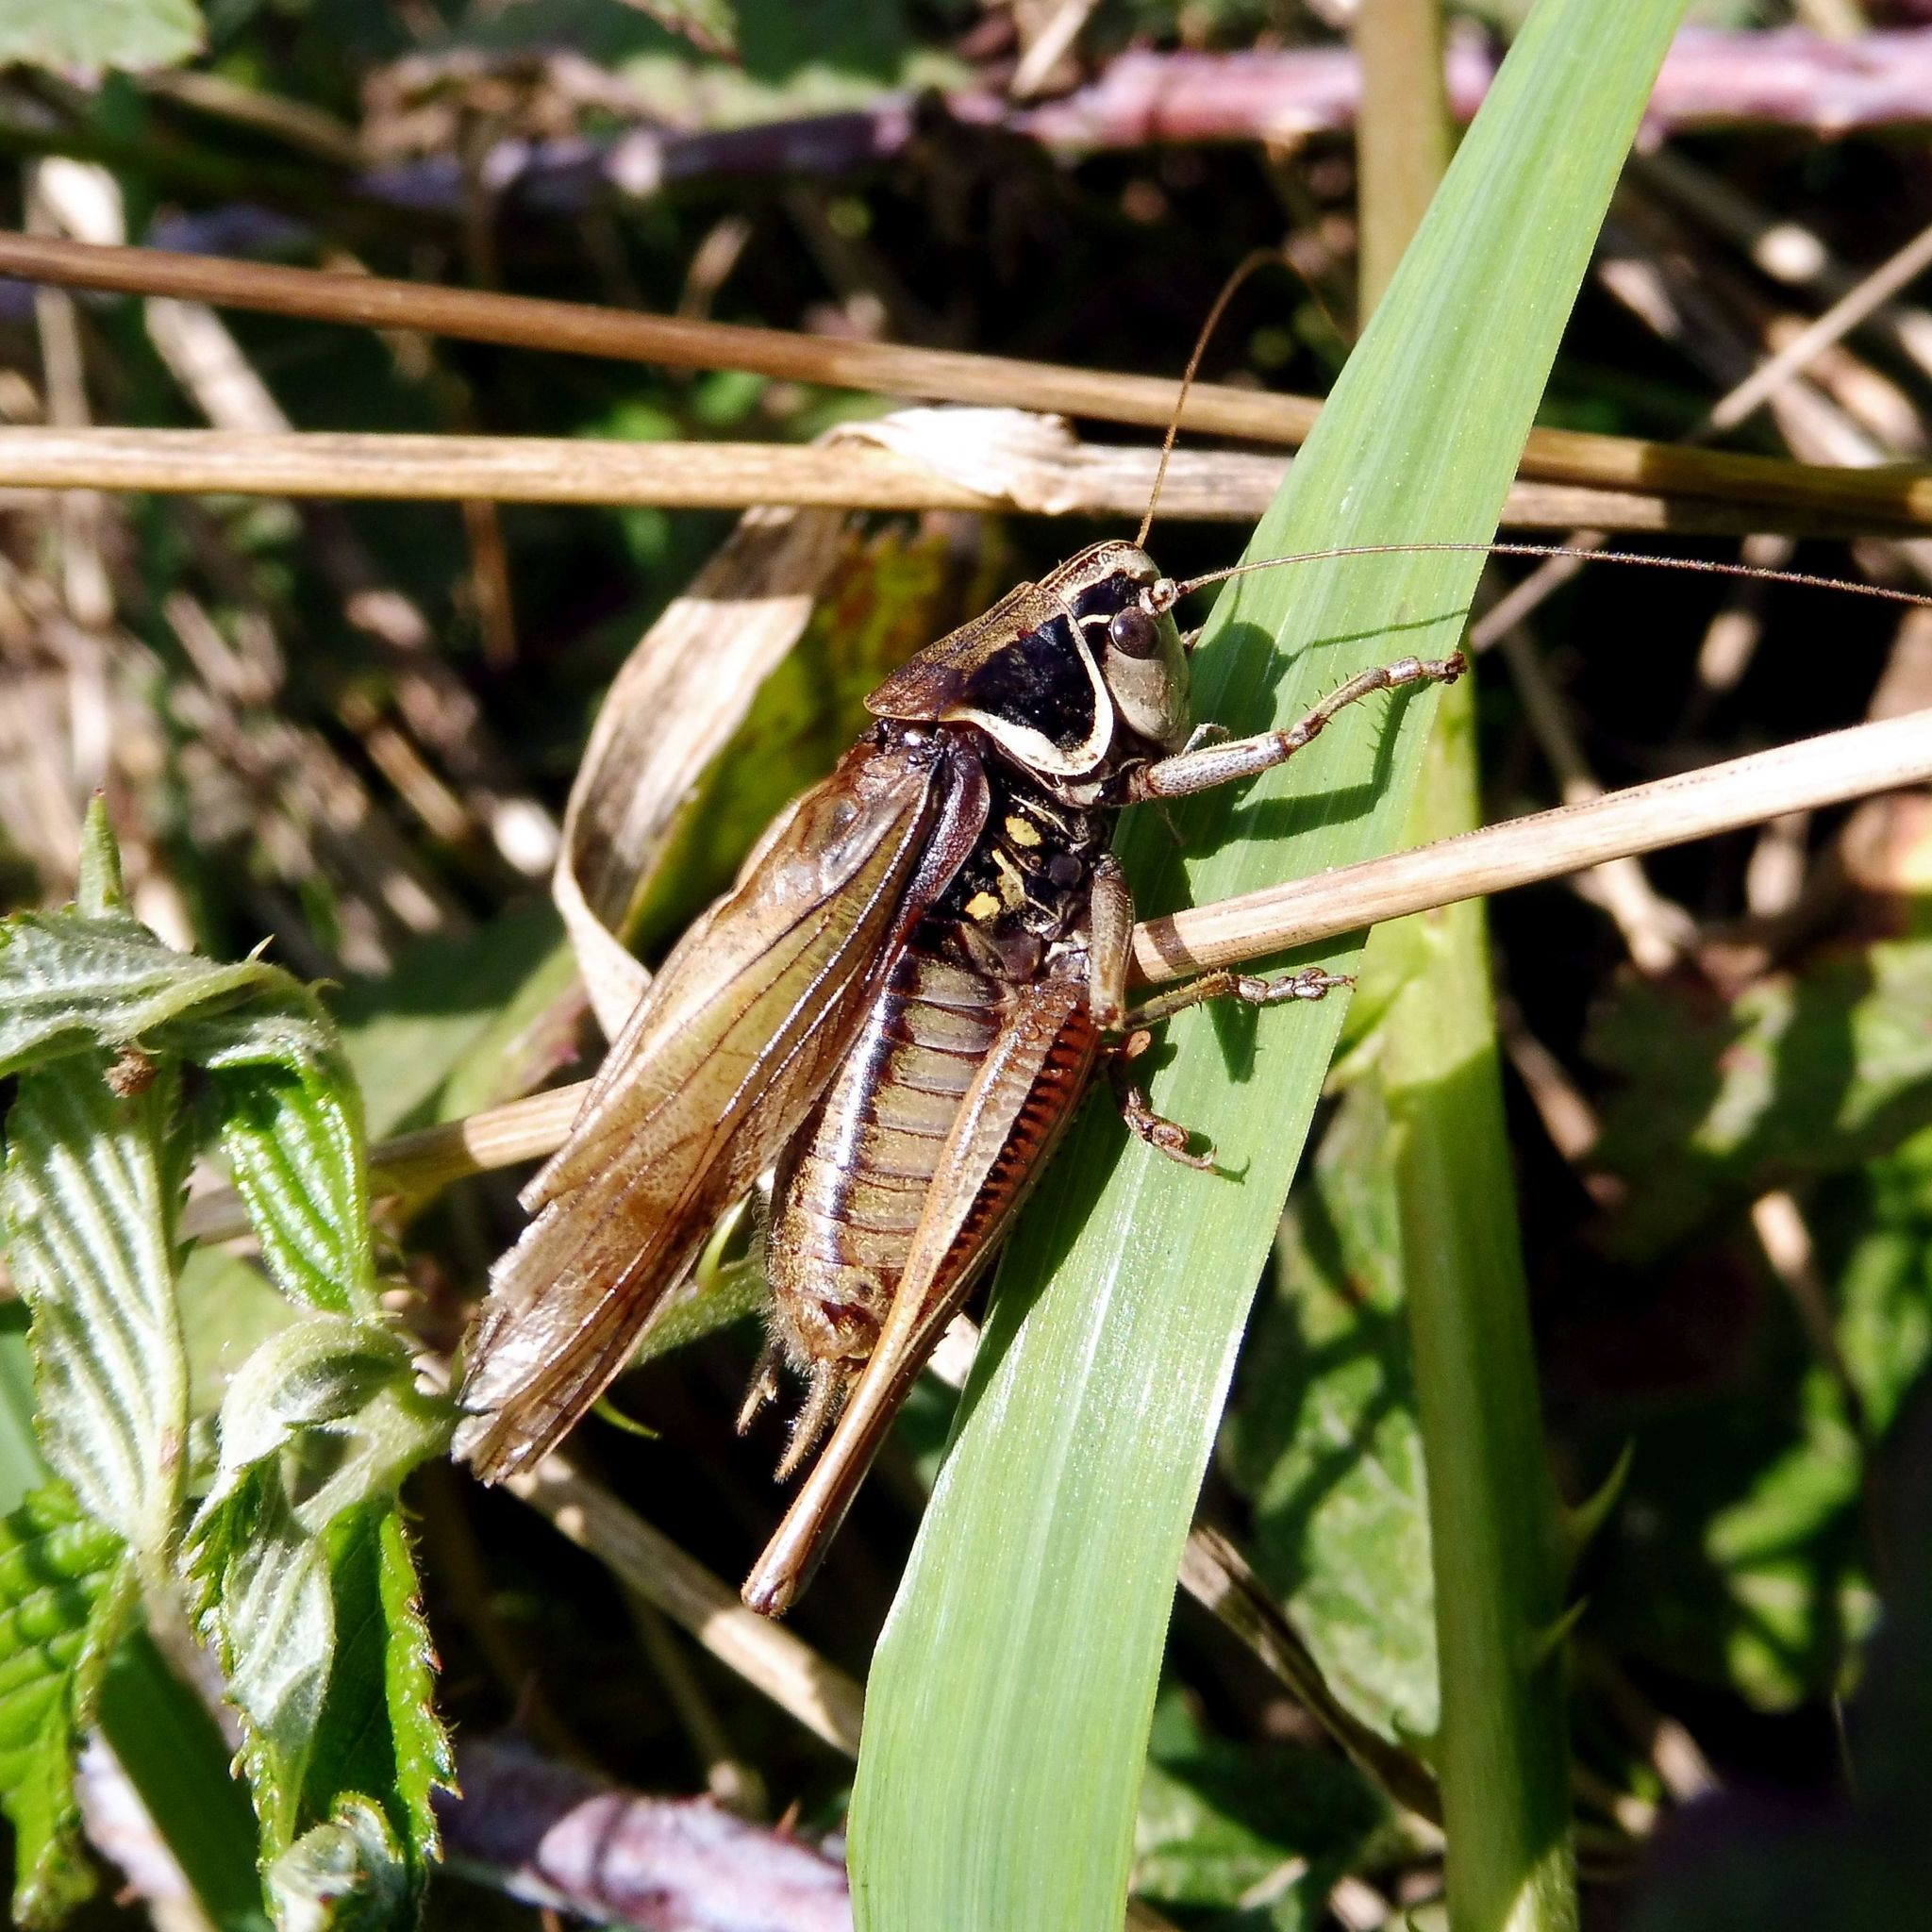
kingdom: Animalia
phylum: Arthropoda
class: Insecta
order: Orthoptera
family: Tettigoniidae
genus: Roeseliana
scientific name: Roeseliana roeselii
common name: Roesel's bush cricket
